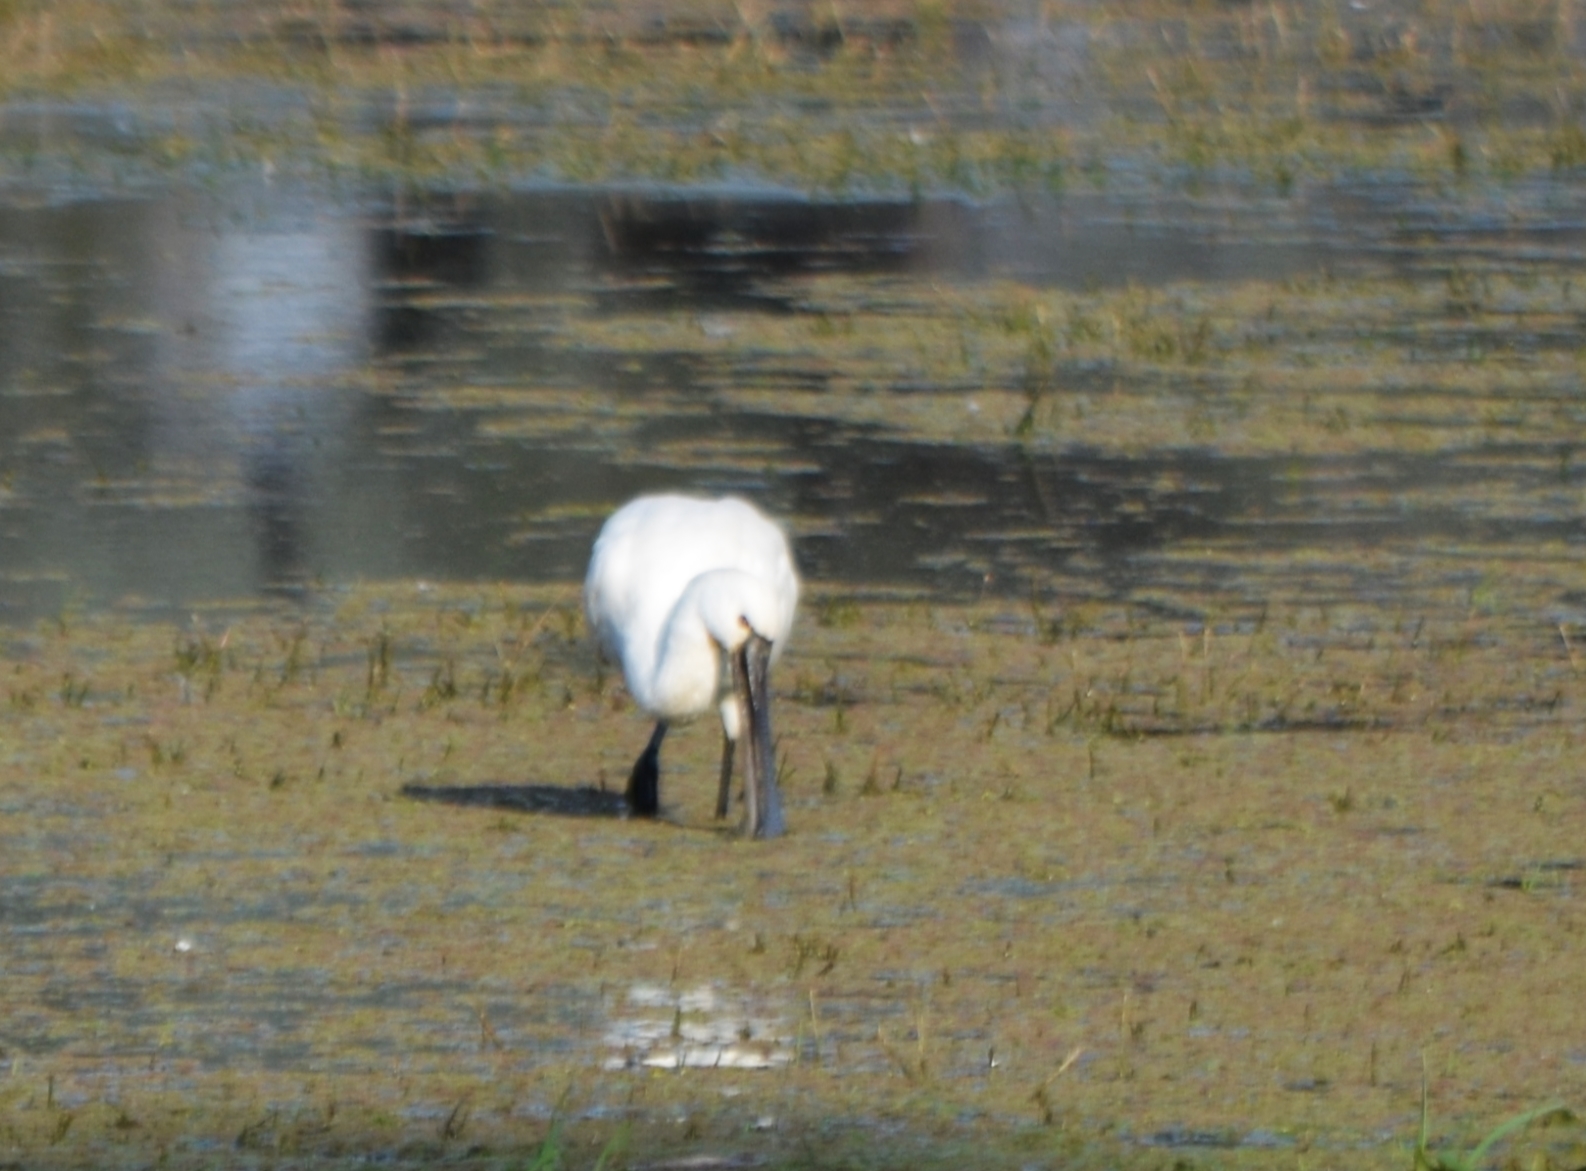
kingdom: Animalia
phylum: Chordata
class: Aves
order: Pelecaniformes
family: Threskiornithidae
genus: Platalea
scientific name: Platalea leucorodia
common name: Eurasian spoonbill
